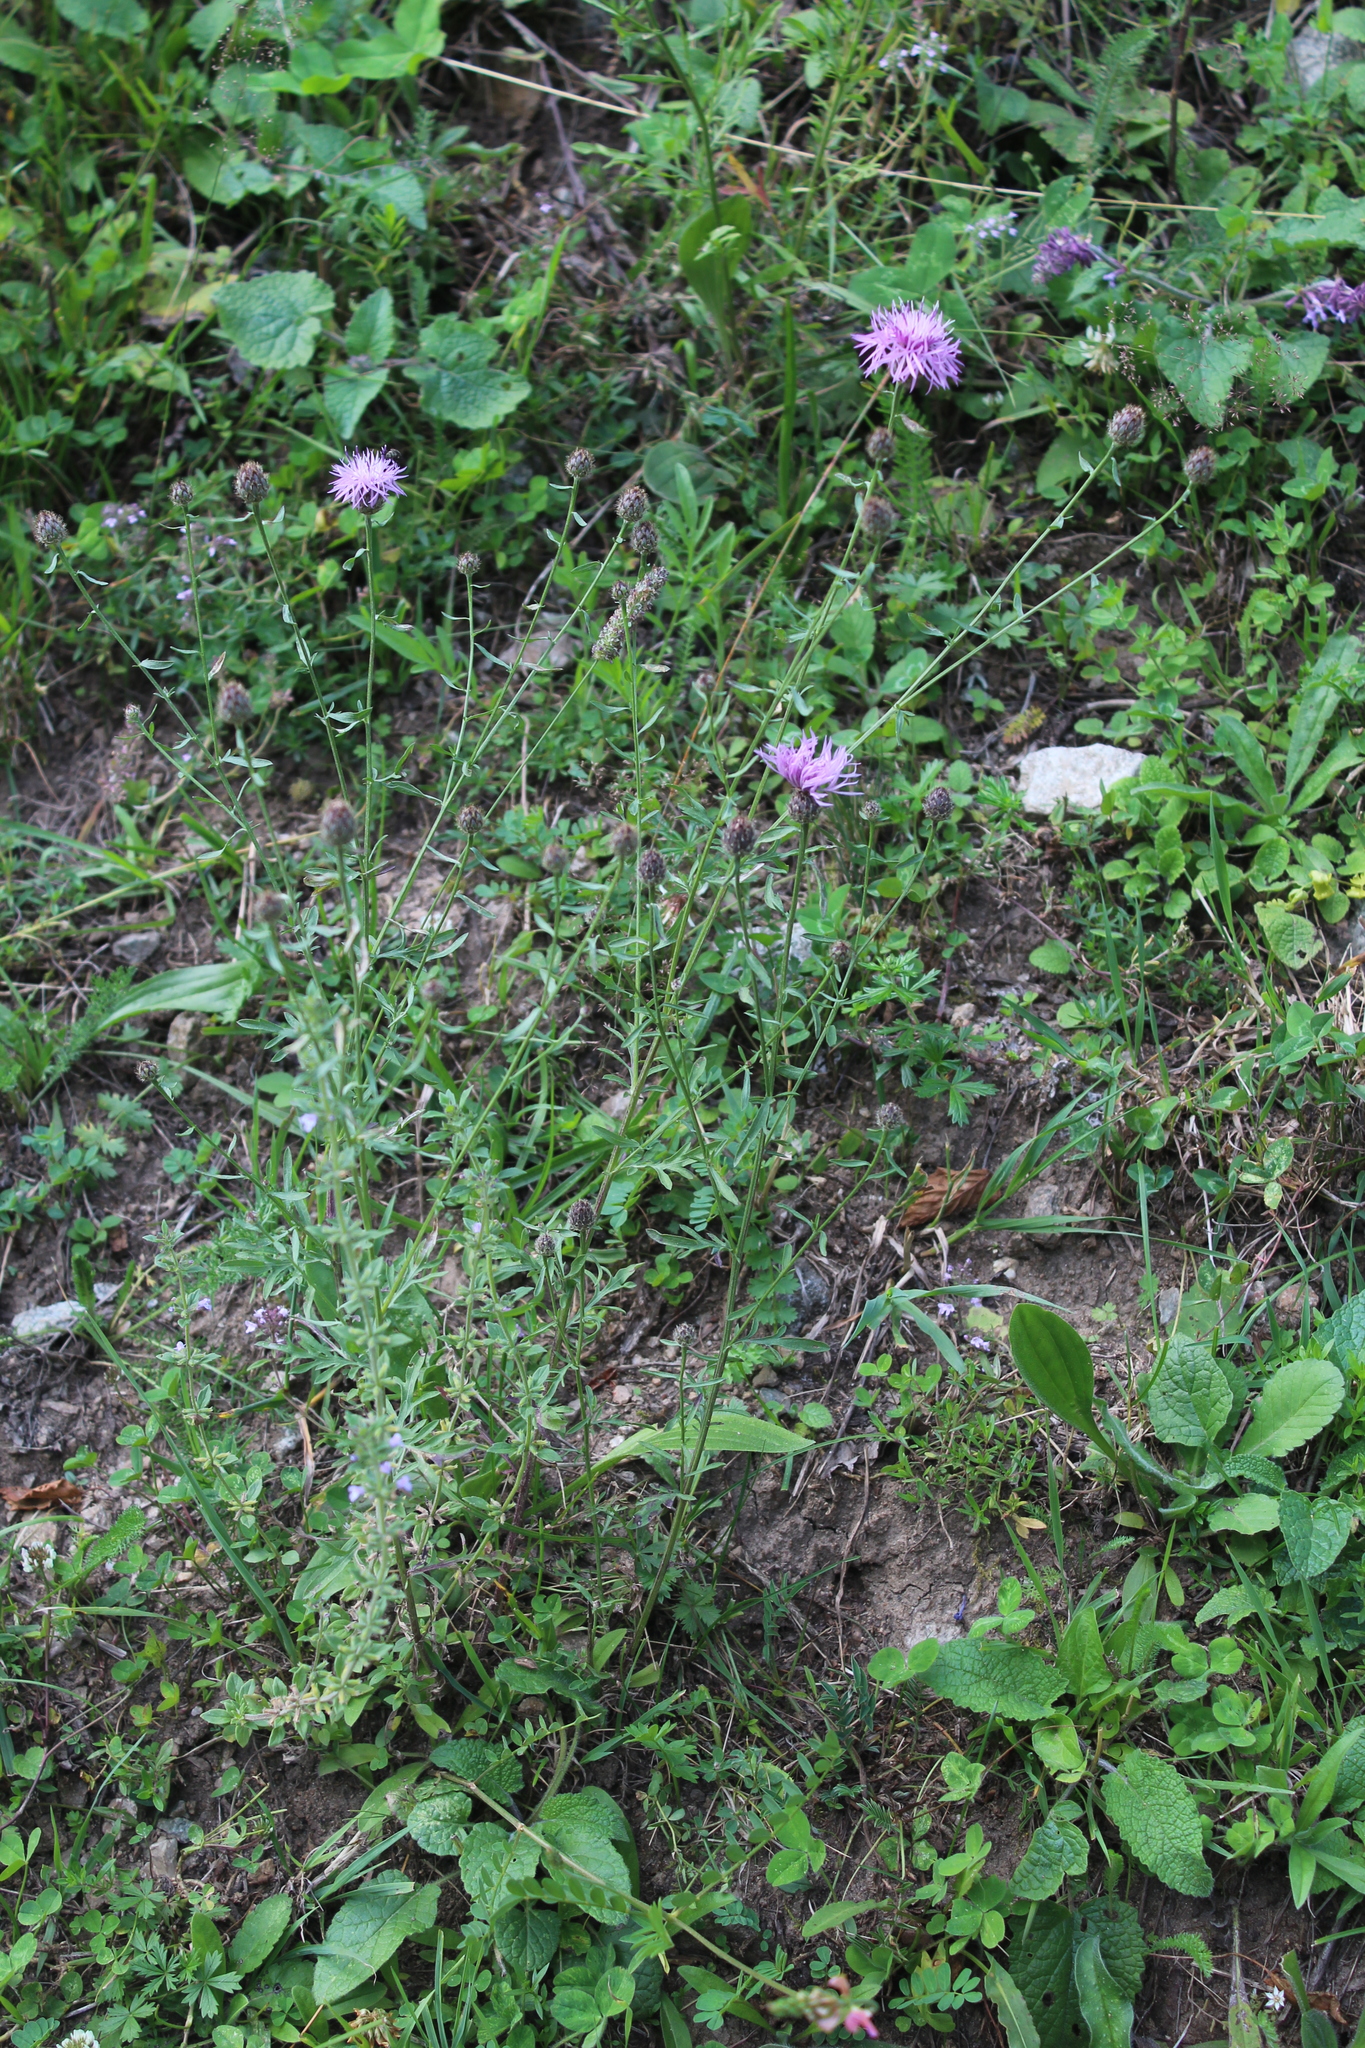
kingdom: Plantae
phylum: Tracheophyta
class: Magnoliopsida
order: Asterales
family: Asteraceae
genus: Centaurea
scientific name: Centaurea kemulariae
